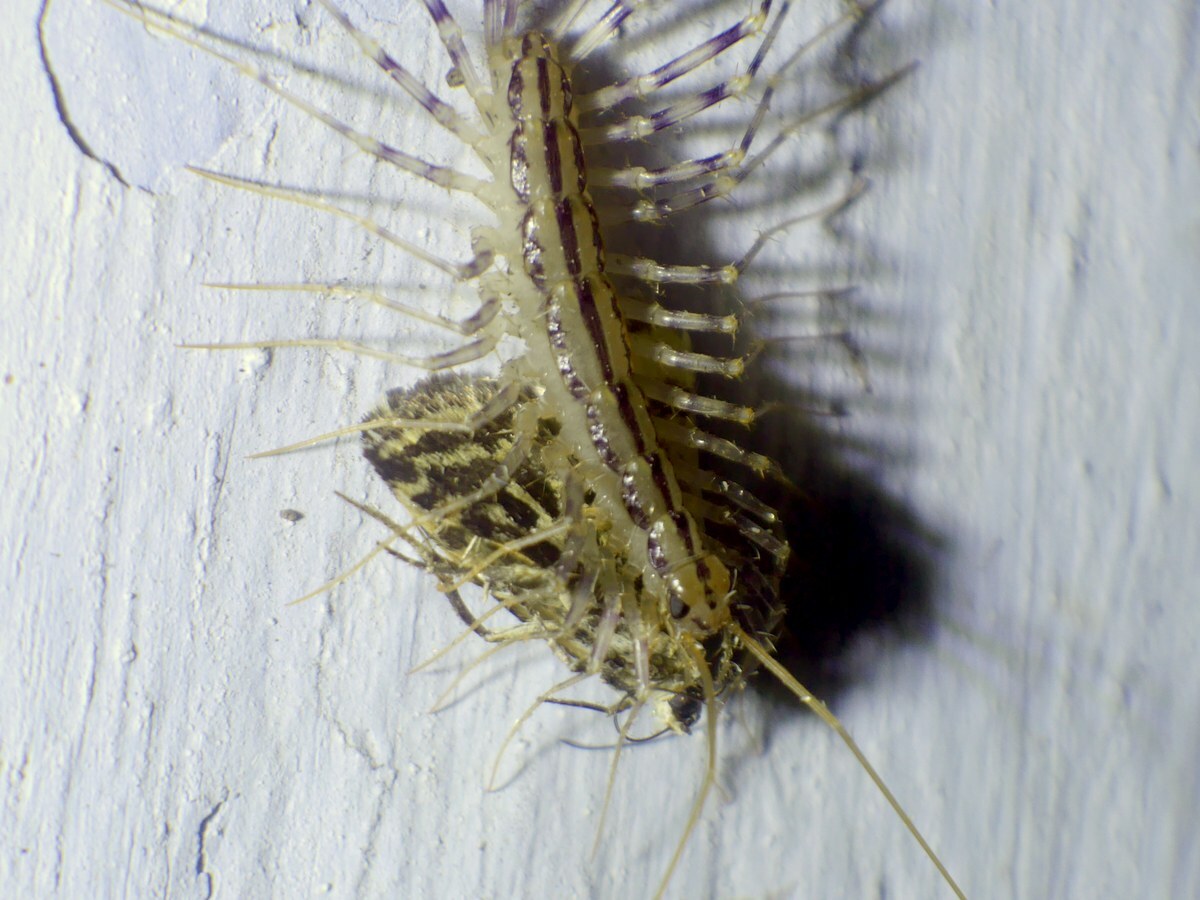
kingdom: Animalia
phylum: Arthropoda
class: Chilopoda
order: Scutigeromorpha
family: Scutigeridae
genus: Scutigera
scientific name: Scutigera coleoptrata
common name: House centipede
